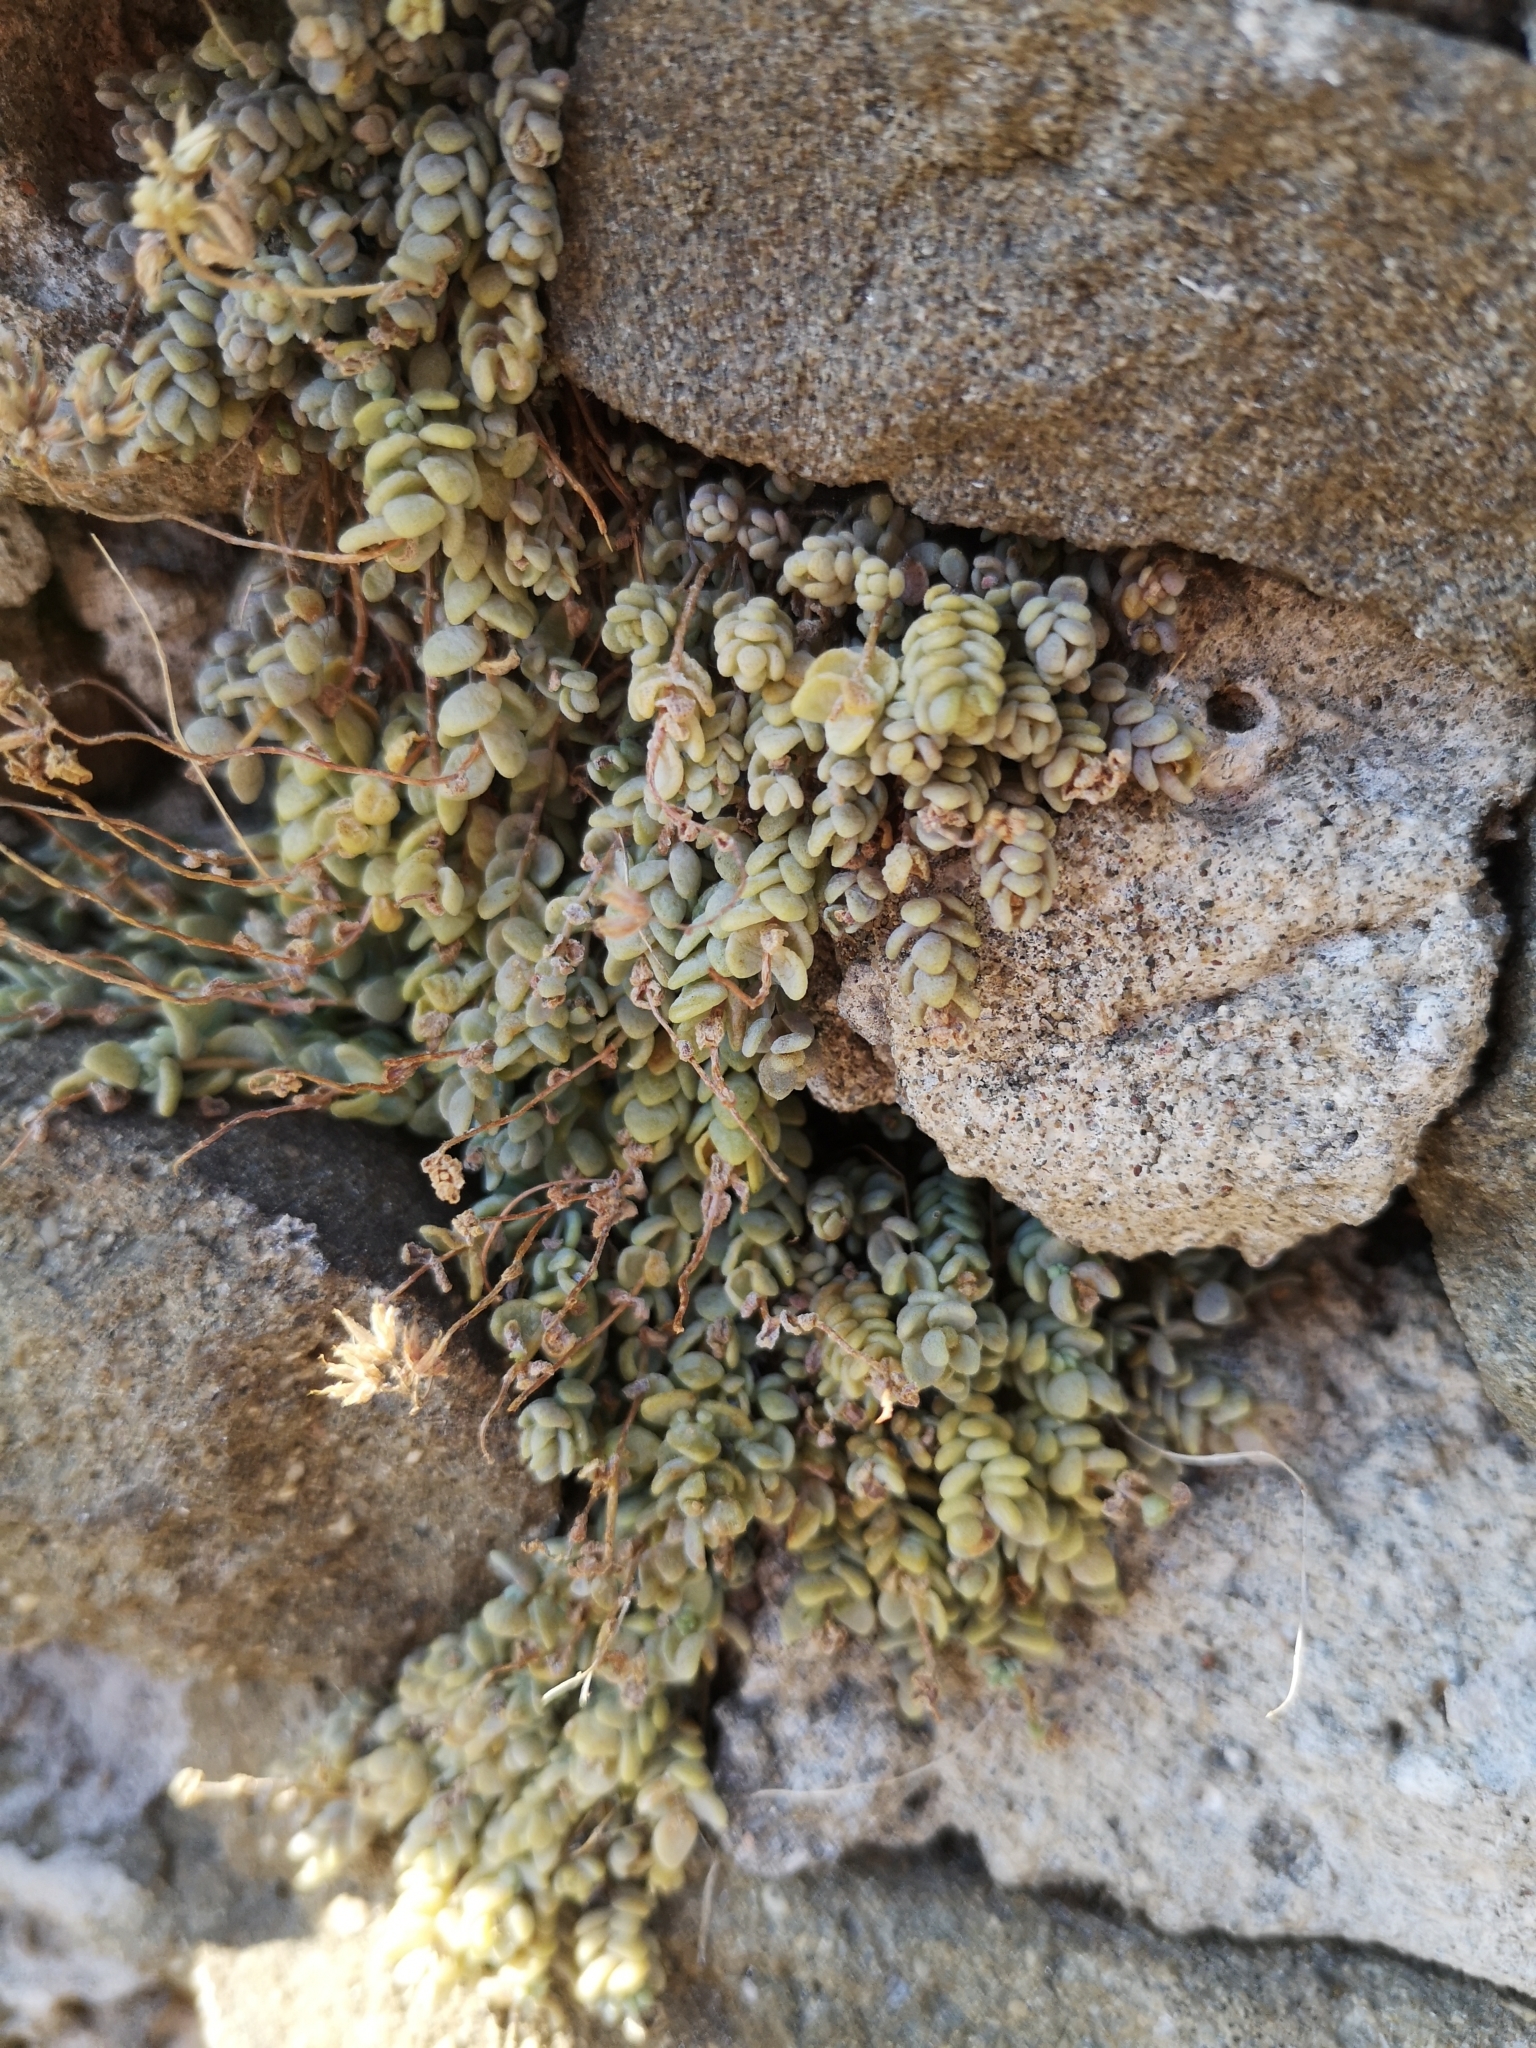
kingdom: Plantae
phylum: Tracheophyta
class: Magnoliopsida
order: Saxifragales
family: Crassulaceae
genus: Sedum
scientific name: Sedum dasyphyllum
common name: Thick-leaf stonecrop
